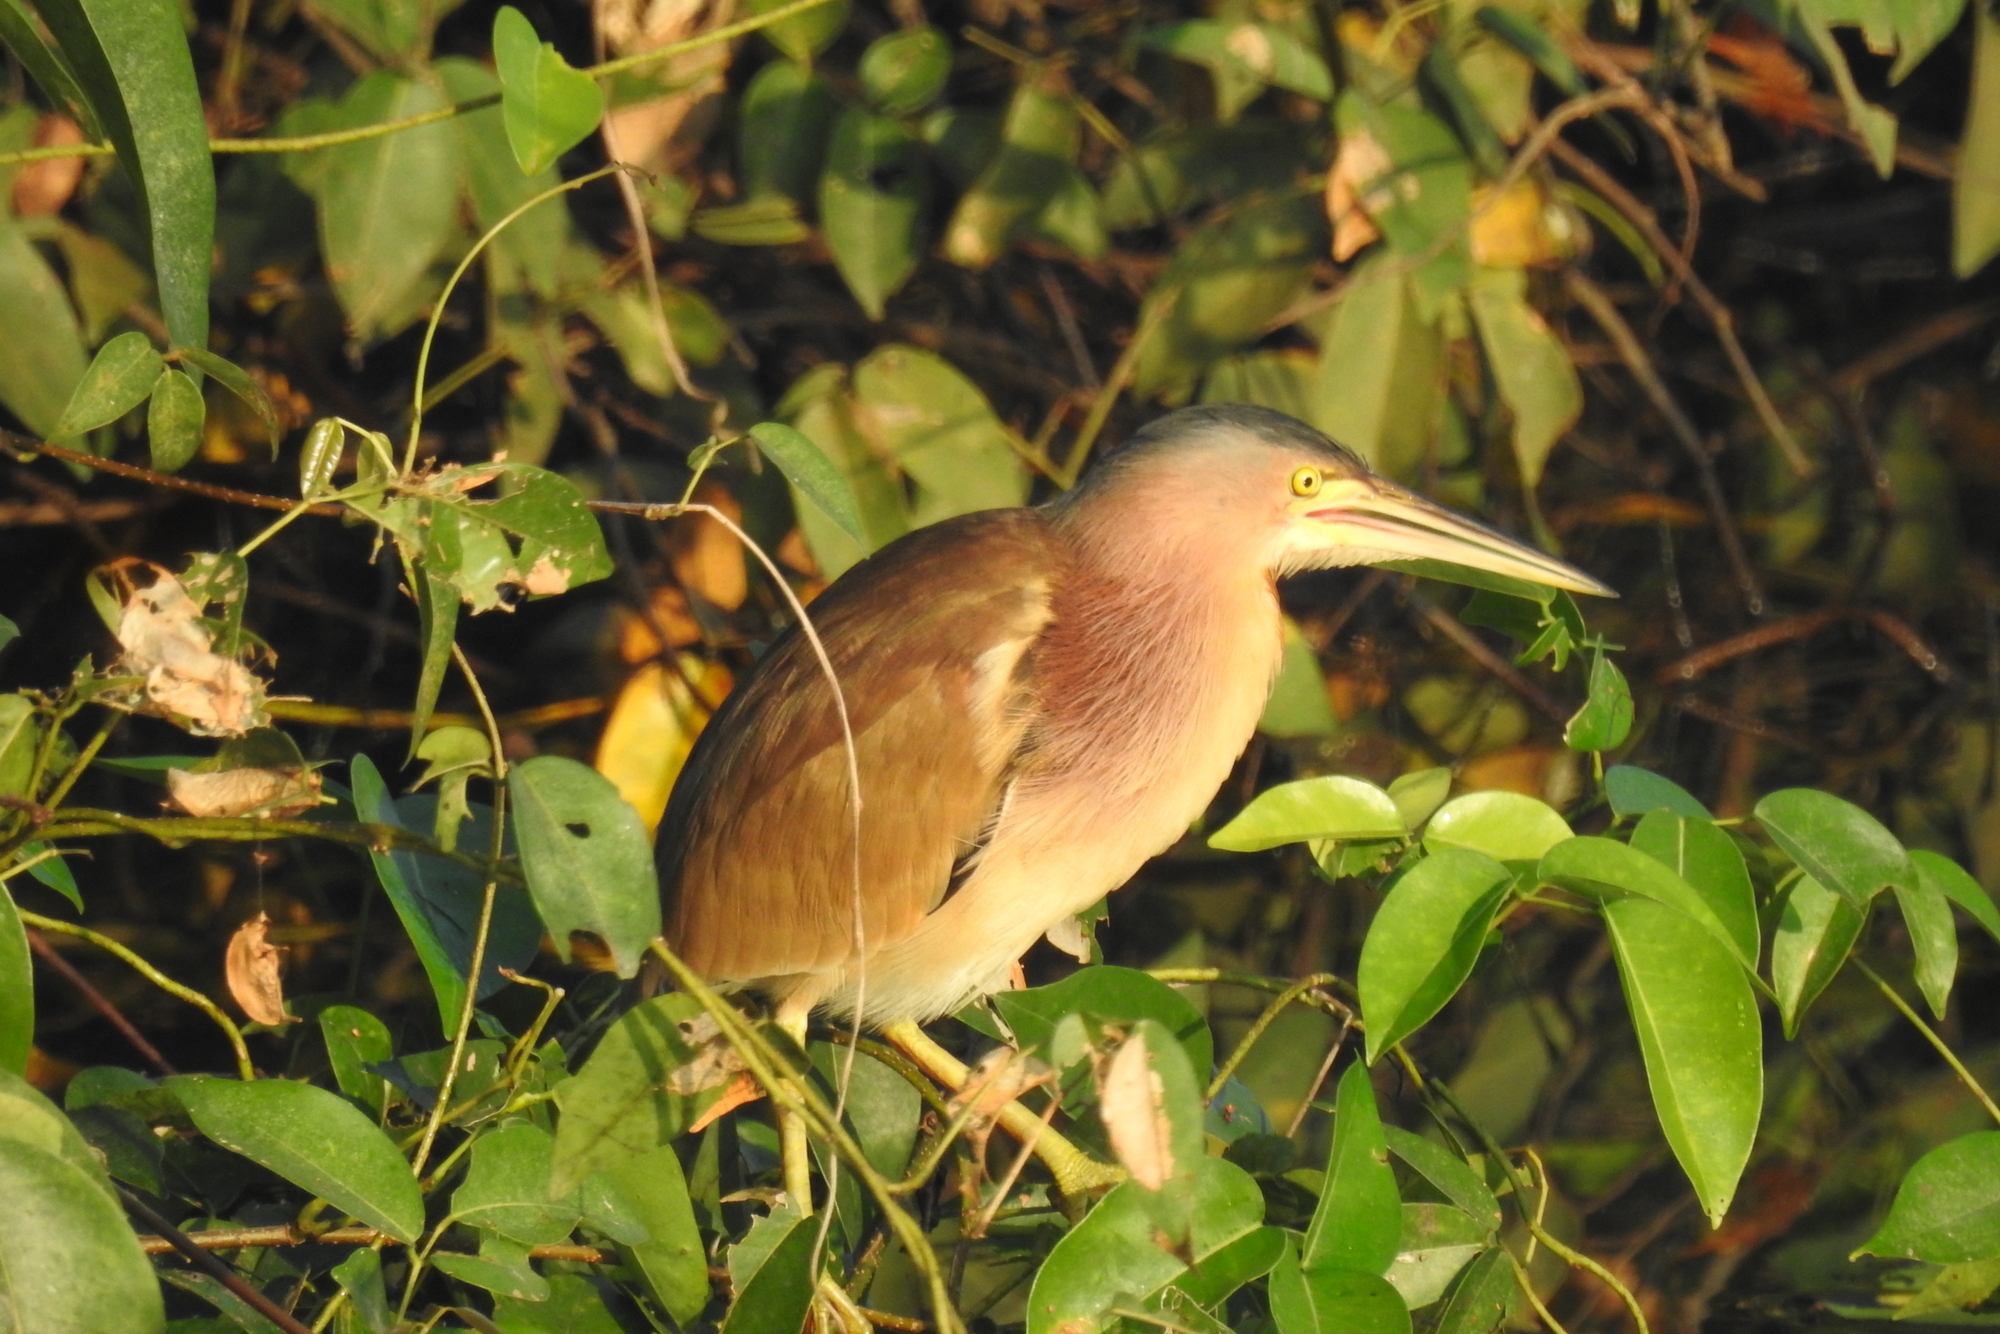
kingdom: Animalia
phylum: Chordata
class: Aves
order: Pelecaniformes
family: Ardeidae
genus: Ixobrychus
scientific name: Ixobrychus sinensis
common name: Yellow bittern
